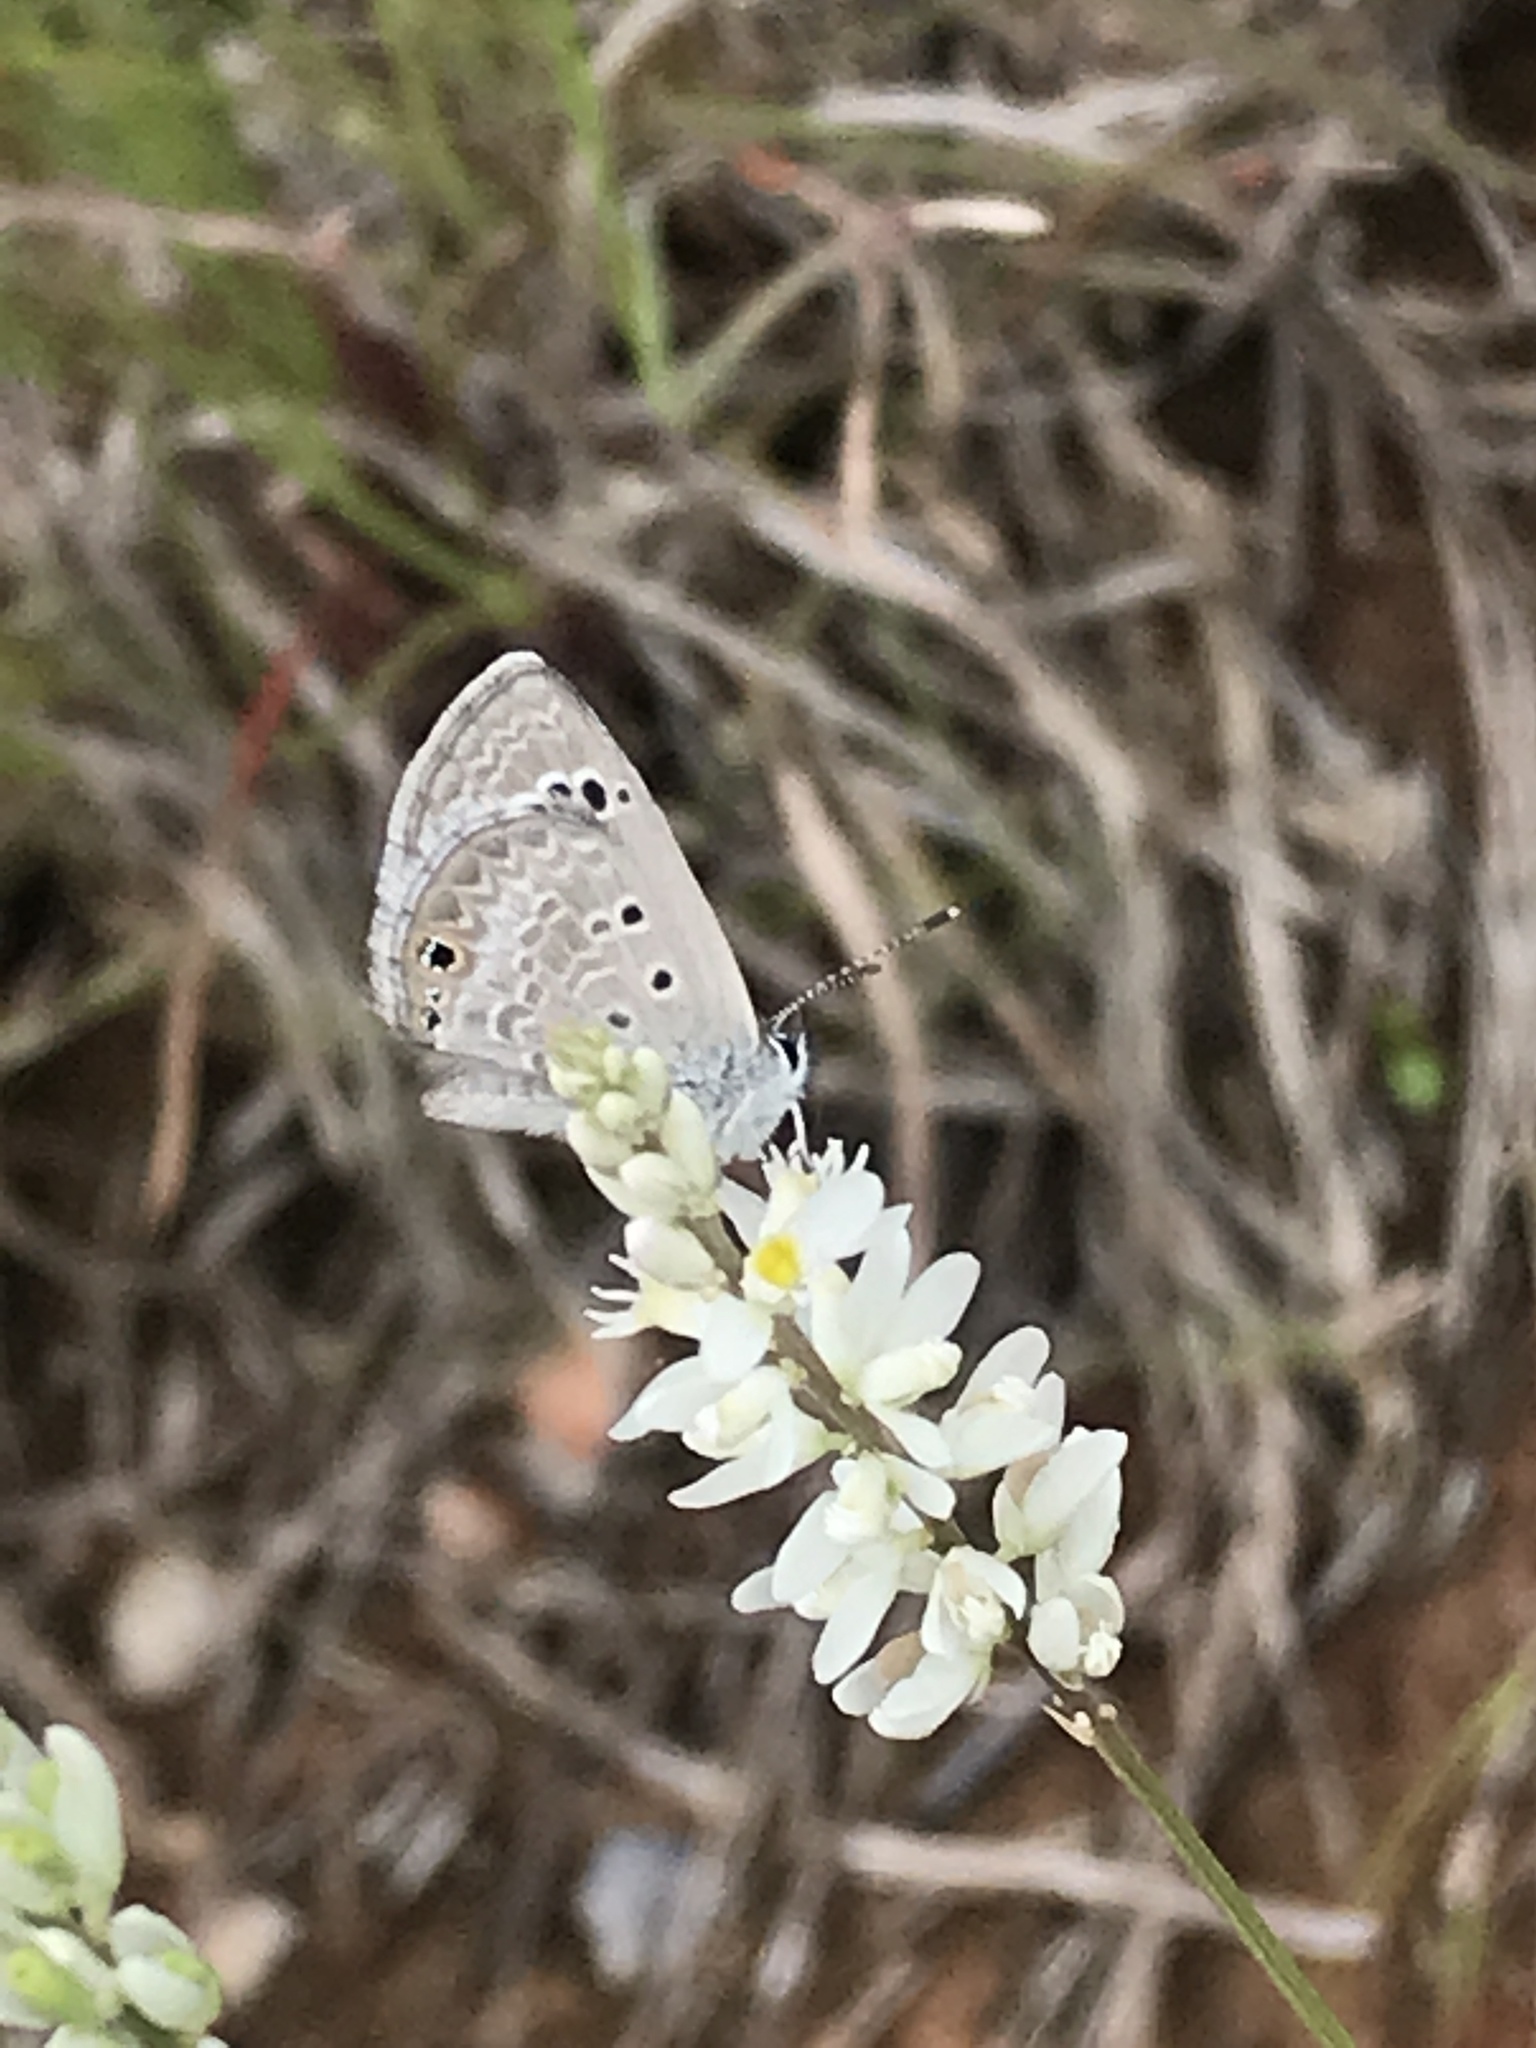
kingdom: Animalia
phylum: Arthropoda
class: Insecta
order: Lepidoptera
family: Lycaenidae
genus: Echinargus
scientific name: Echinargus isola
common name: Reakirt's blue
